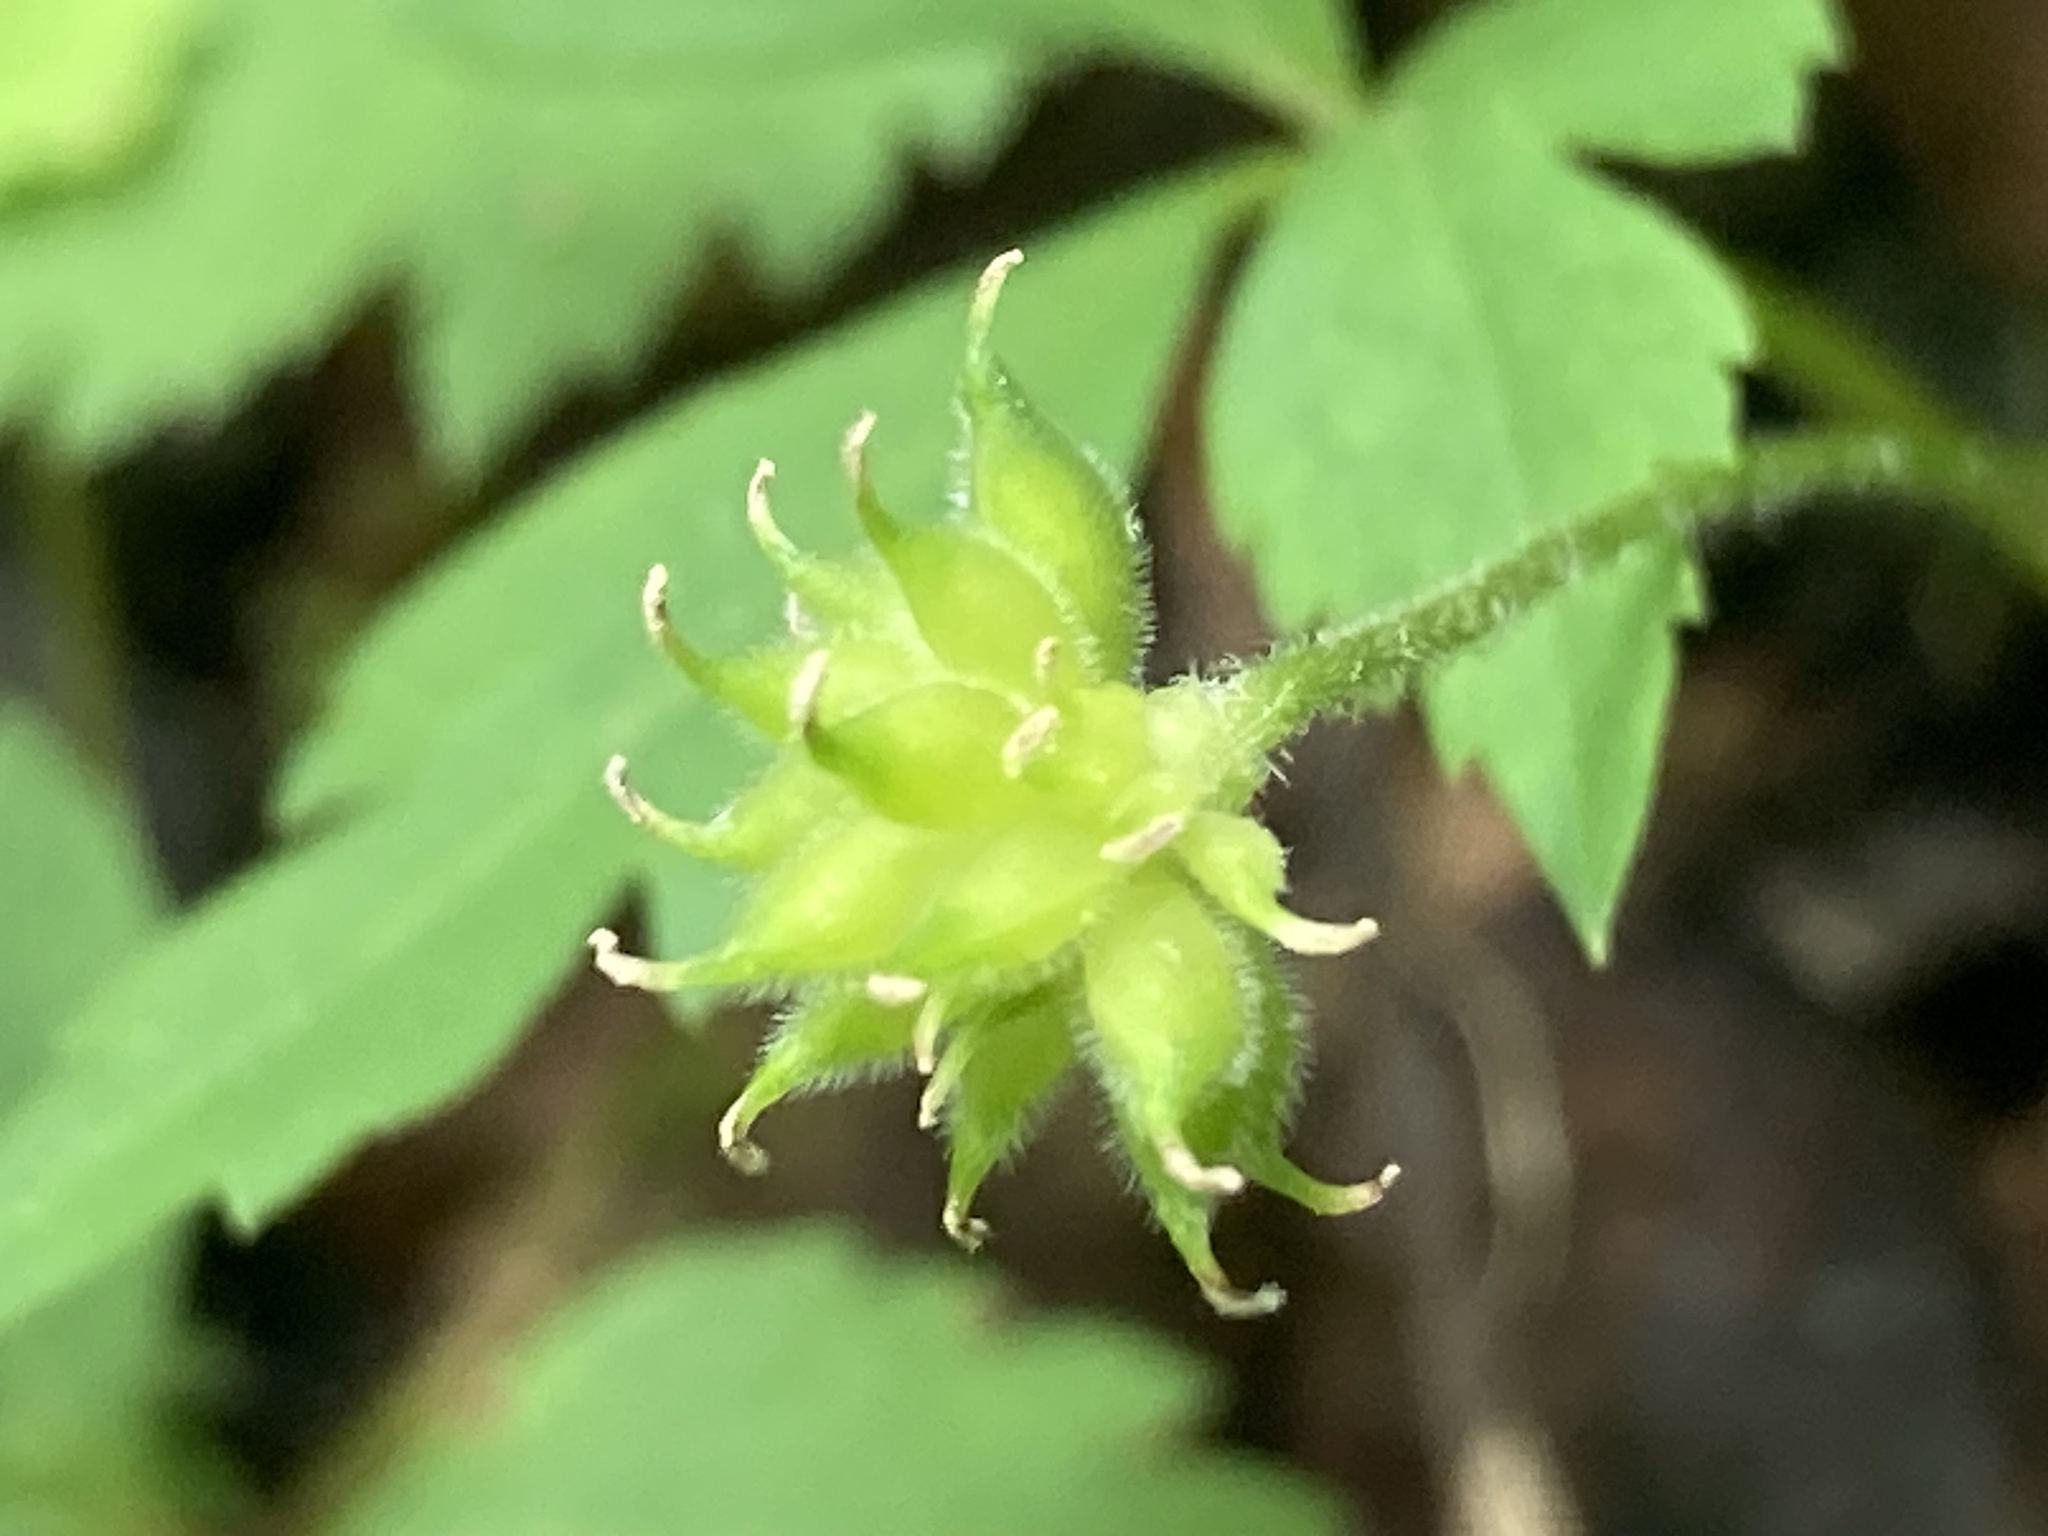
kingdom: Plantae
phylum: Tracheophyta
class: Magnoliopsida
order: Ranunculales
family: Ranunculaceae
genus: Anemone
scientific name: Anemone quinquefolia
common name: Wood anemone
